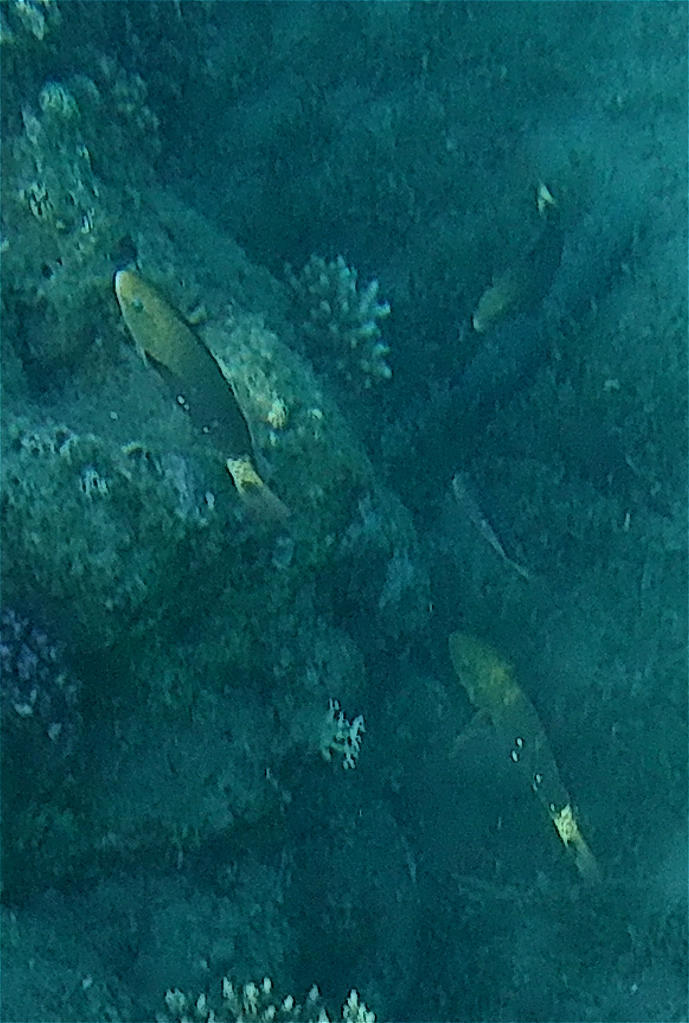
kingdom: Animalia
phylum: Chordata
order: Perciformes
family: Scaridae
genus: Chlorurus
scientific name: Chlorurus sordidus
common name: Bullethead parrotfish
